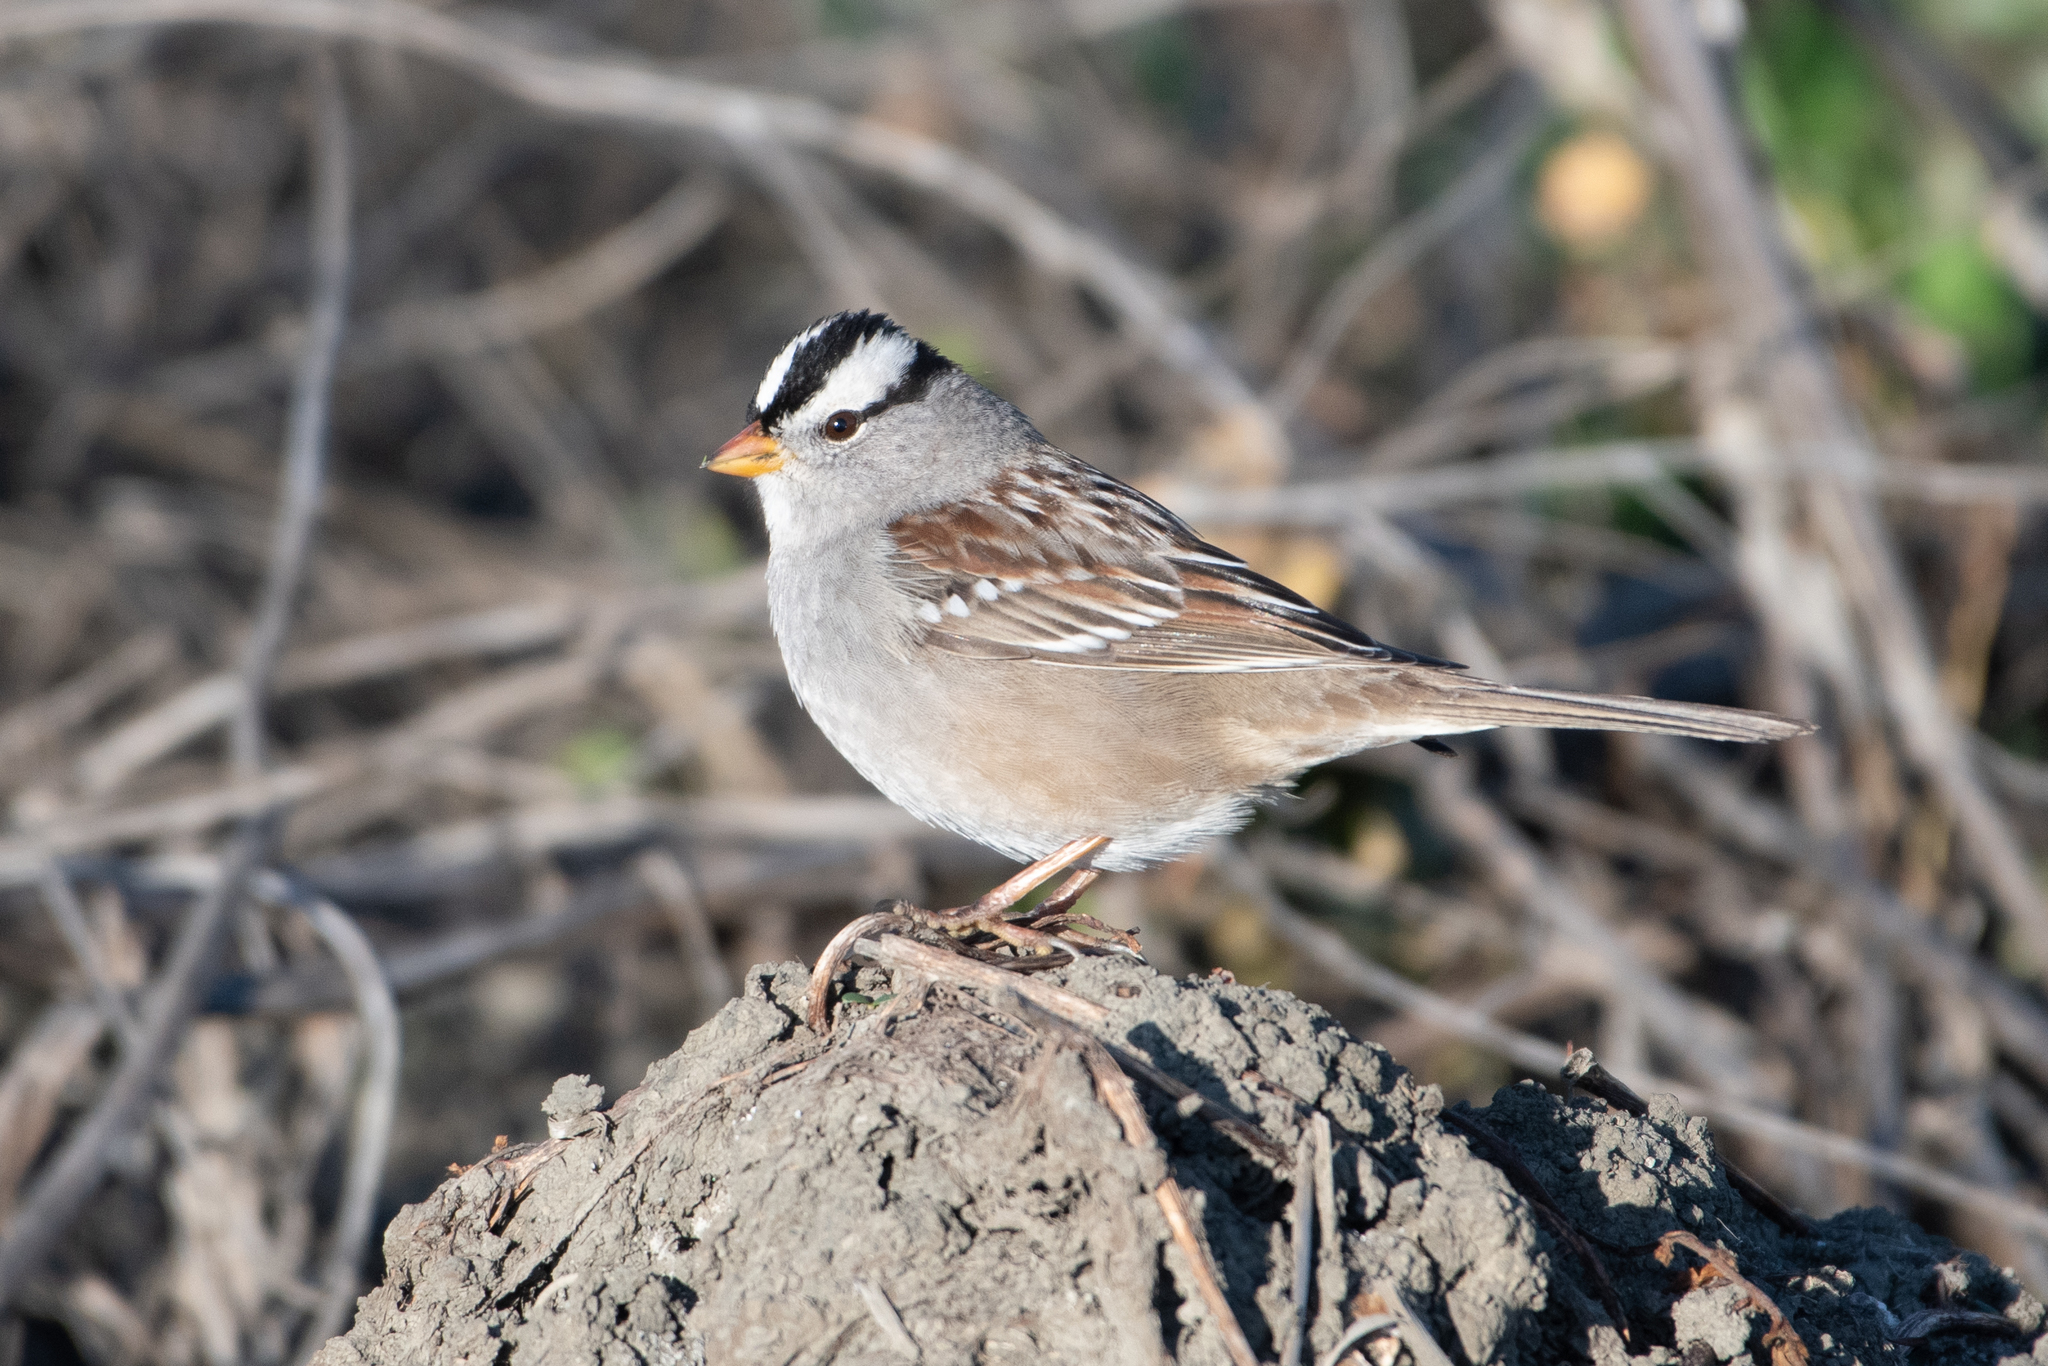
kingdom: Animalia
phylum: Chordata
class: Aves
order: Passeriformes
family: Passerellidae
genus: Zonotrichia
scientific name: Zonotrichia leucophrys
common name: White-crowned sparrow
